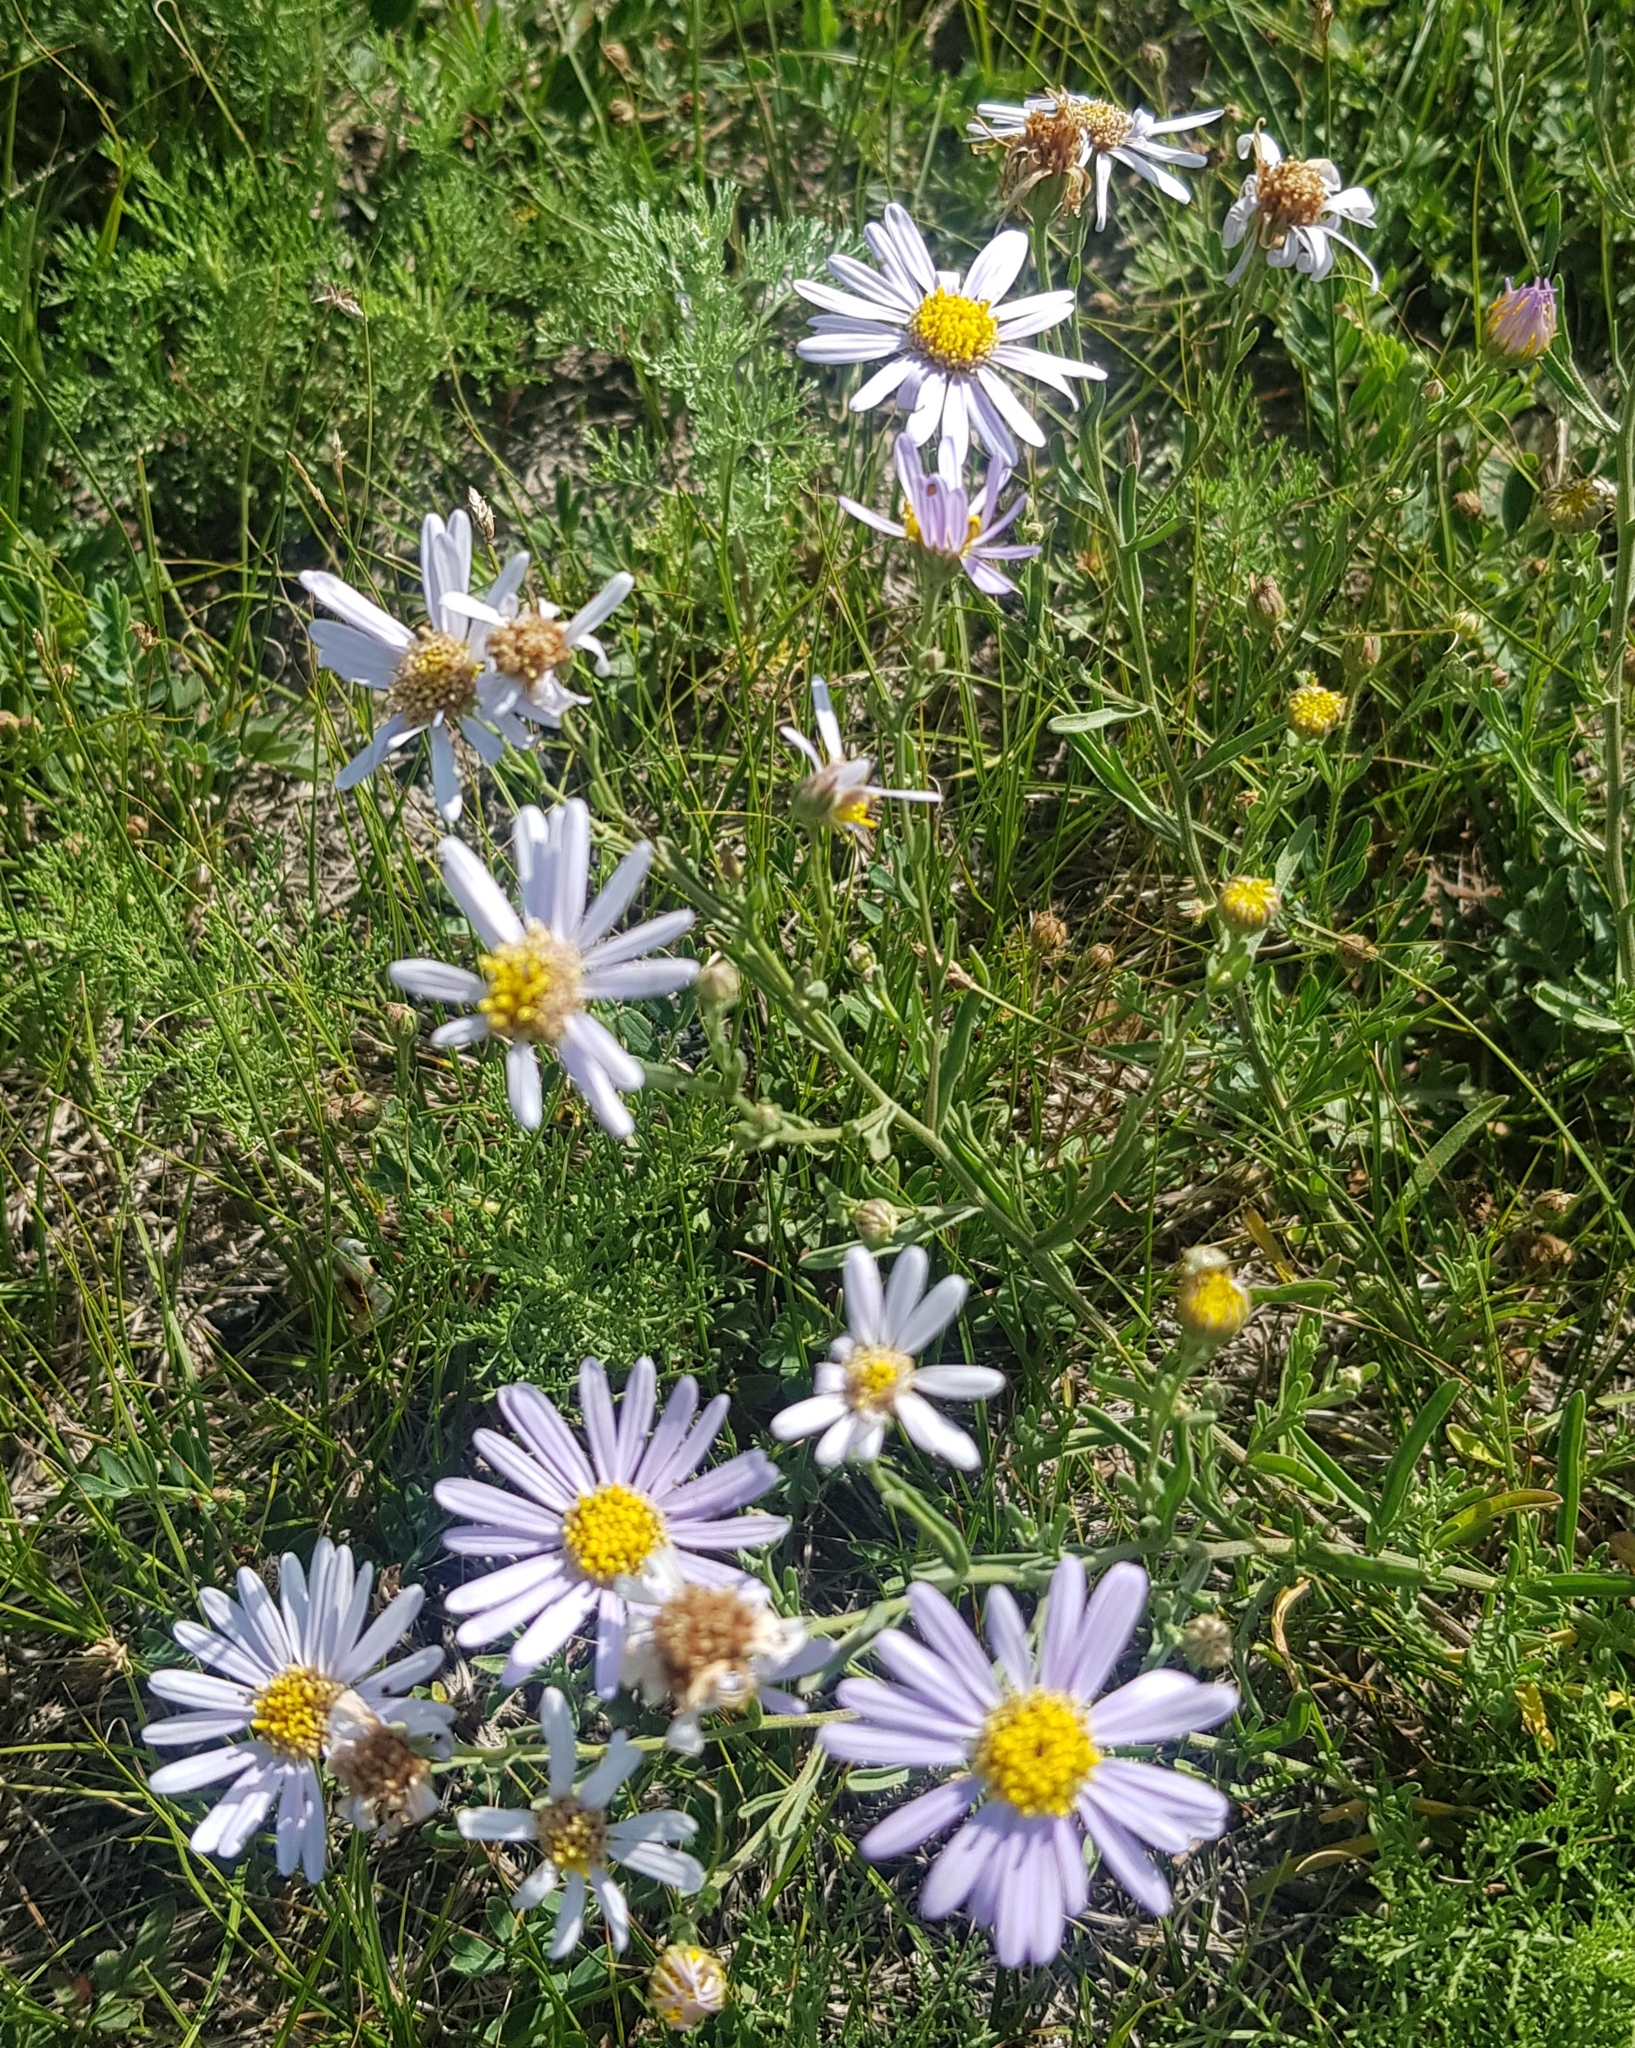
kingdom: Plantae
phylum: Tracheophyta
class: Magnoliopsida
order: Asterales
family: Asteraceae
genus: Heteropappus
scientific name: Heteropappus altaicus
